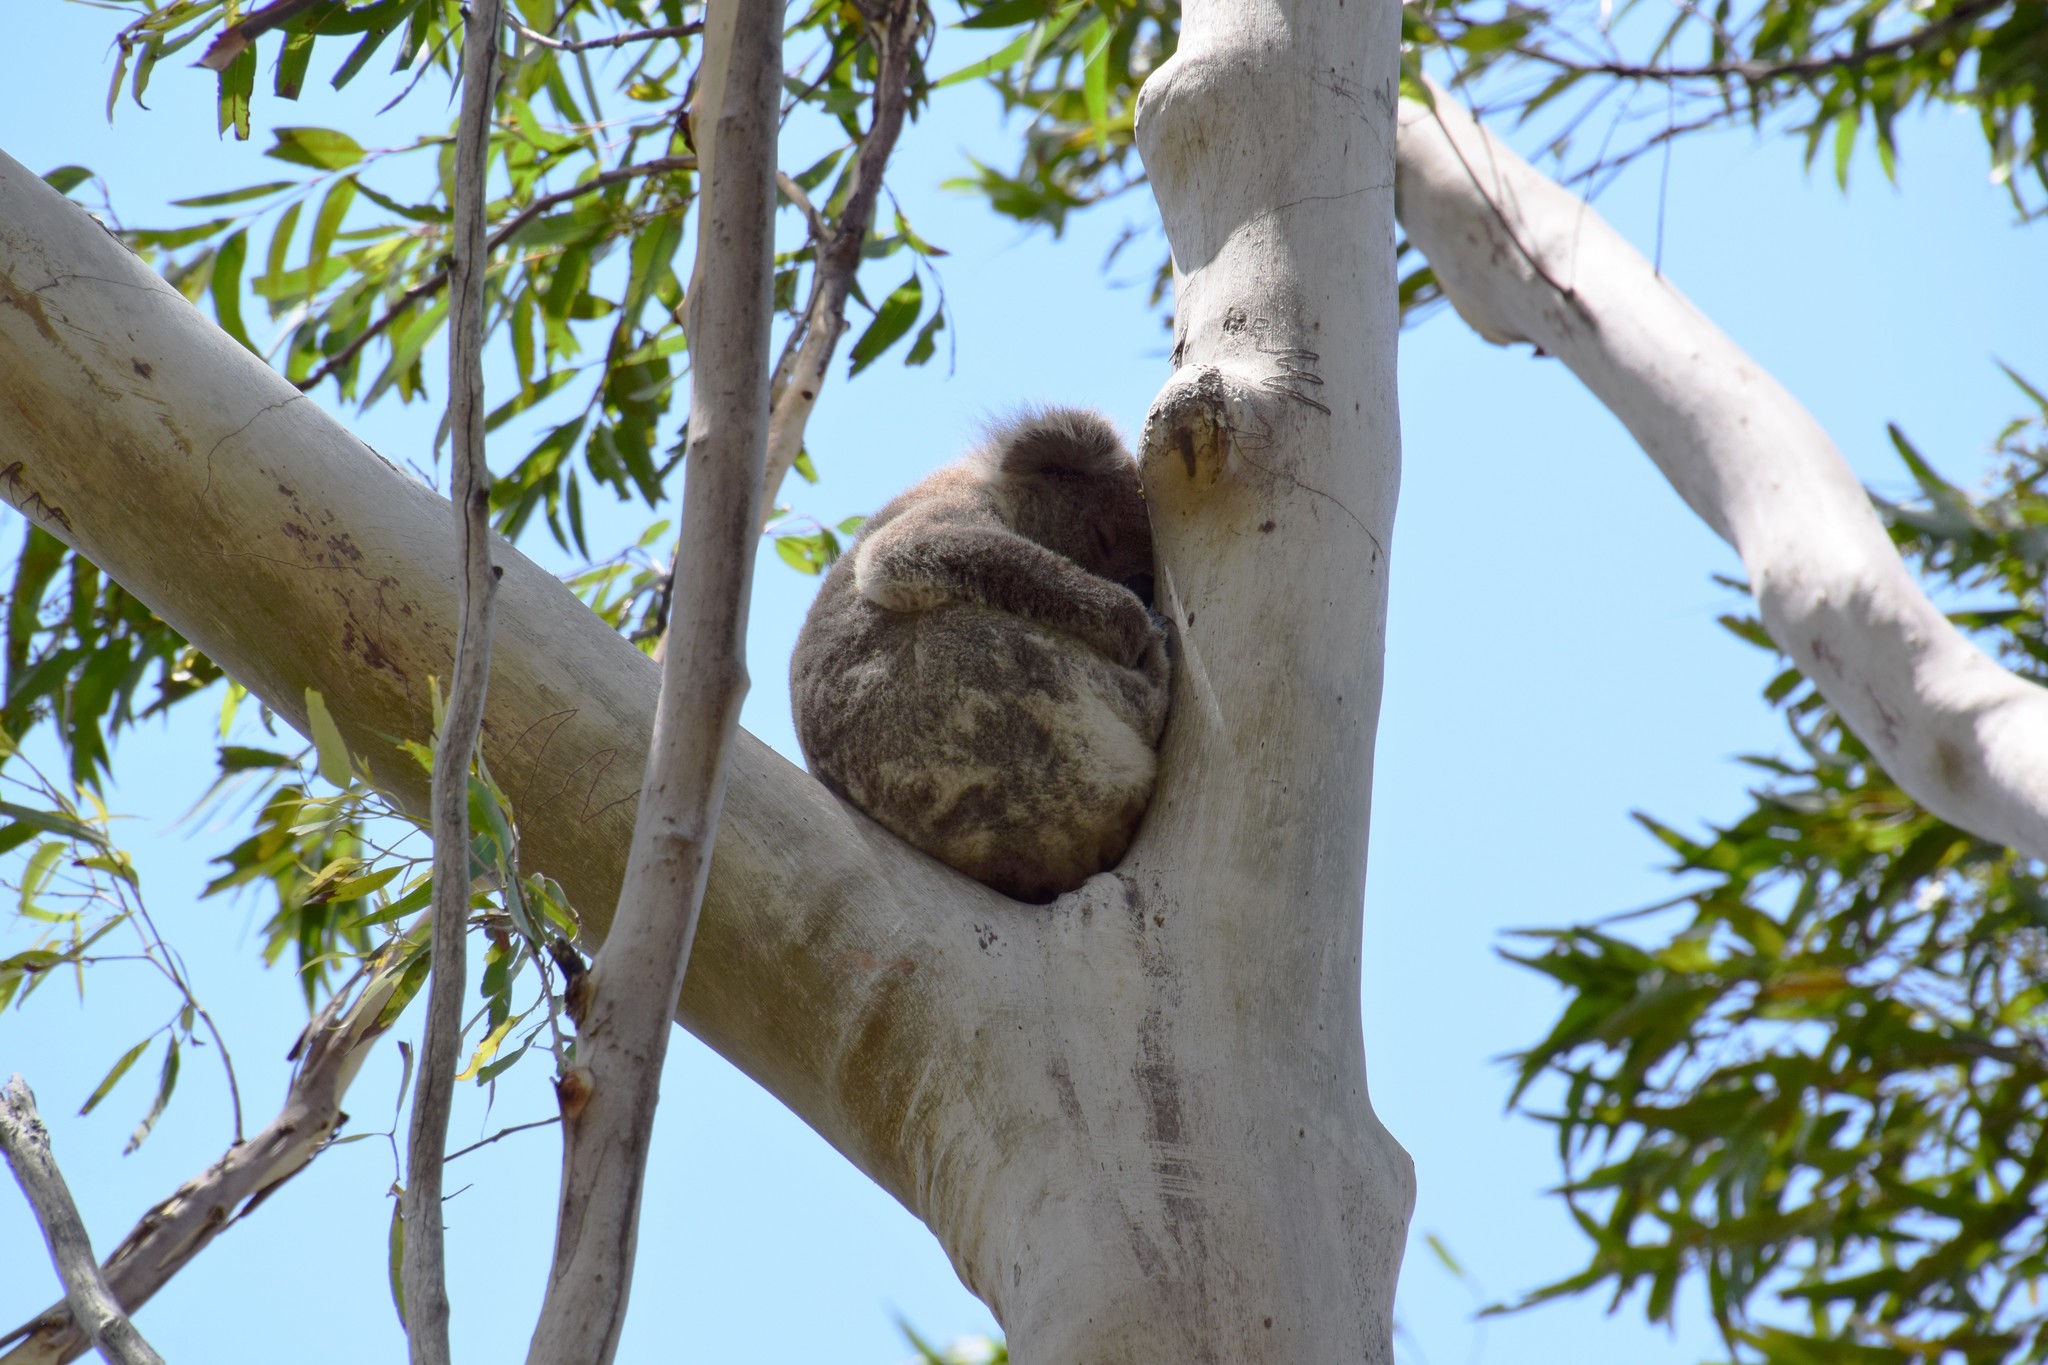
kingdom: Animalia
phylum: Chordata
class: Mammalia
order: Diprotodontia
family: Phascolarctidae
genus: Phascolarctos
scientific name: Phascolarctos cinereus
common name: Koala
